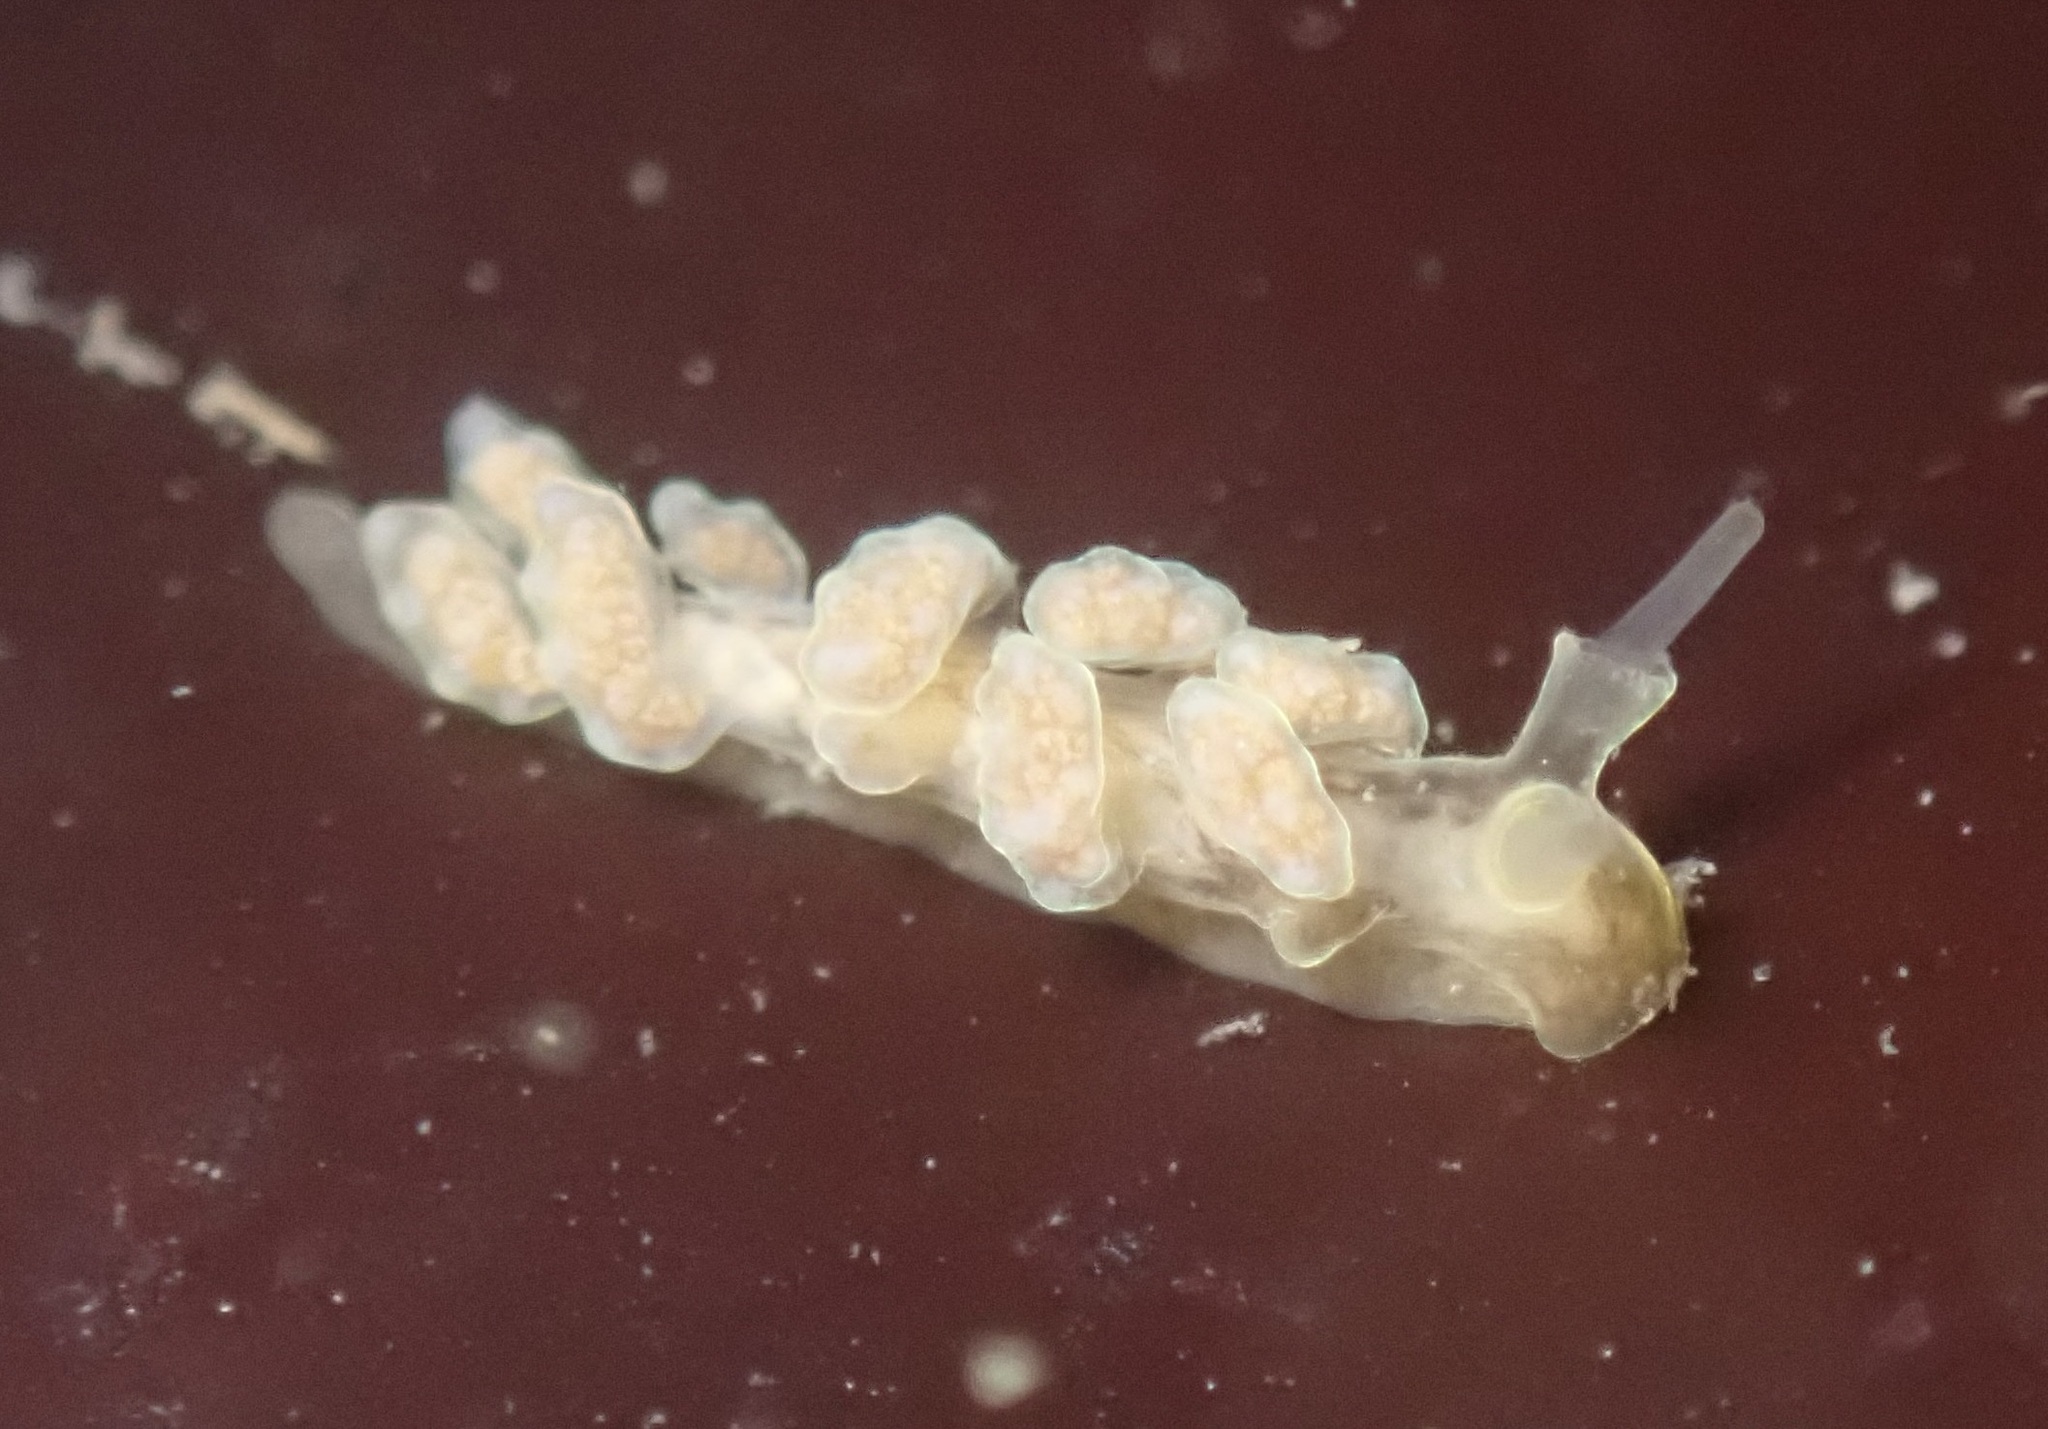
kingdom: Animalia
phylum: Mollusca
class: Gastropoda
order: Nudibranchia
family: Dotidae
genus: Doto
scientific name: Doto columbiana
